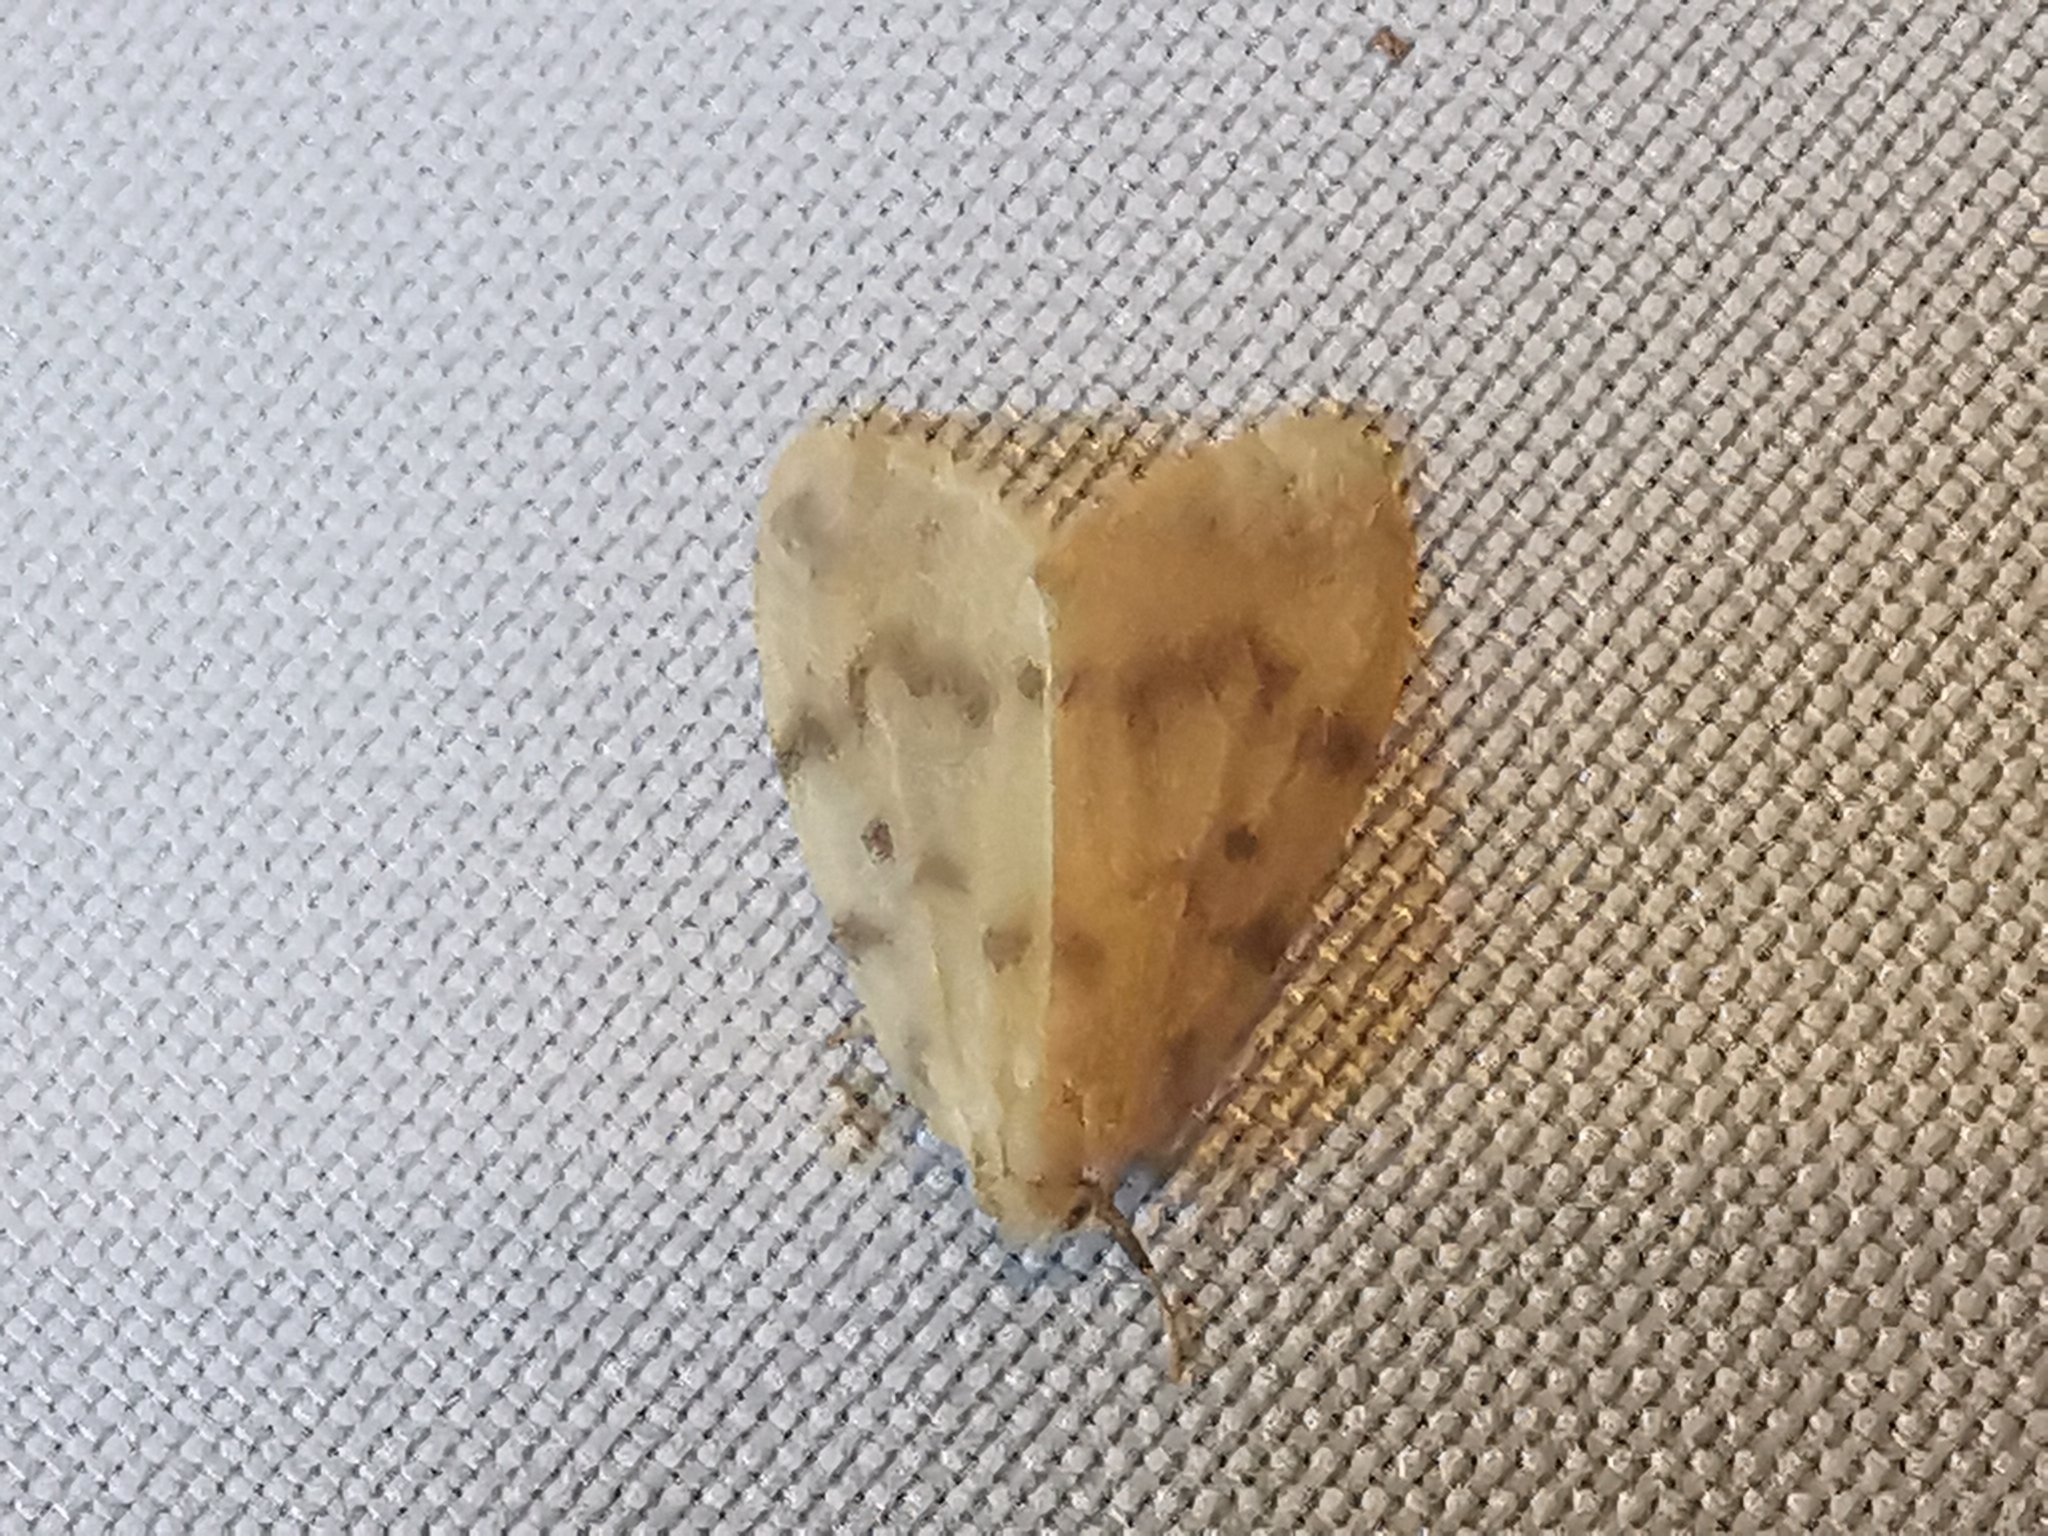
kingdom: Animalia
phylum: Arthropoda
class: Insecta
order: Lepidoptera
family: Erebidae
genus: Nudaria
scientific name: Nudaria mundana
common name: Muslin footman
